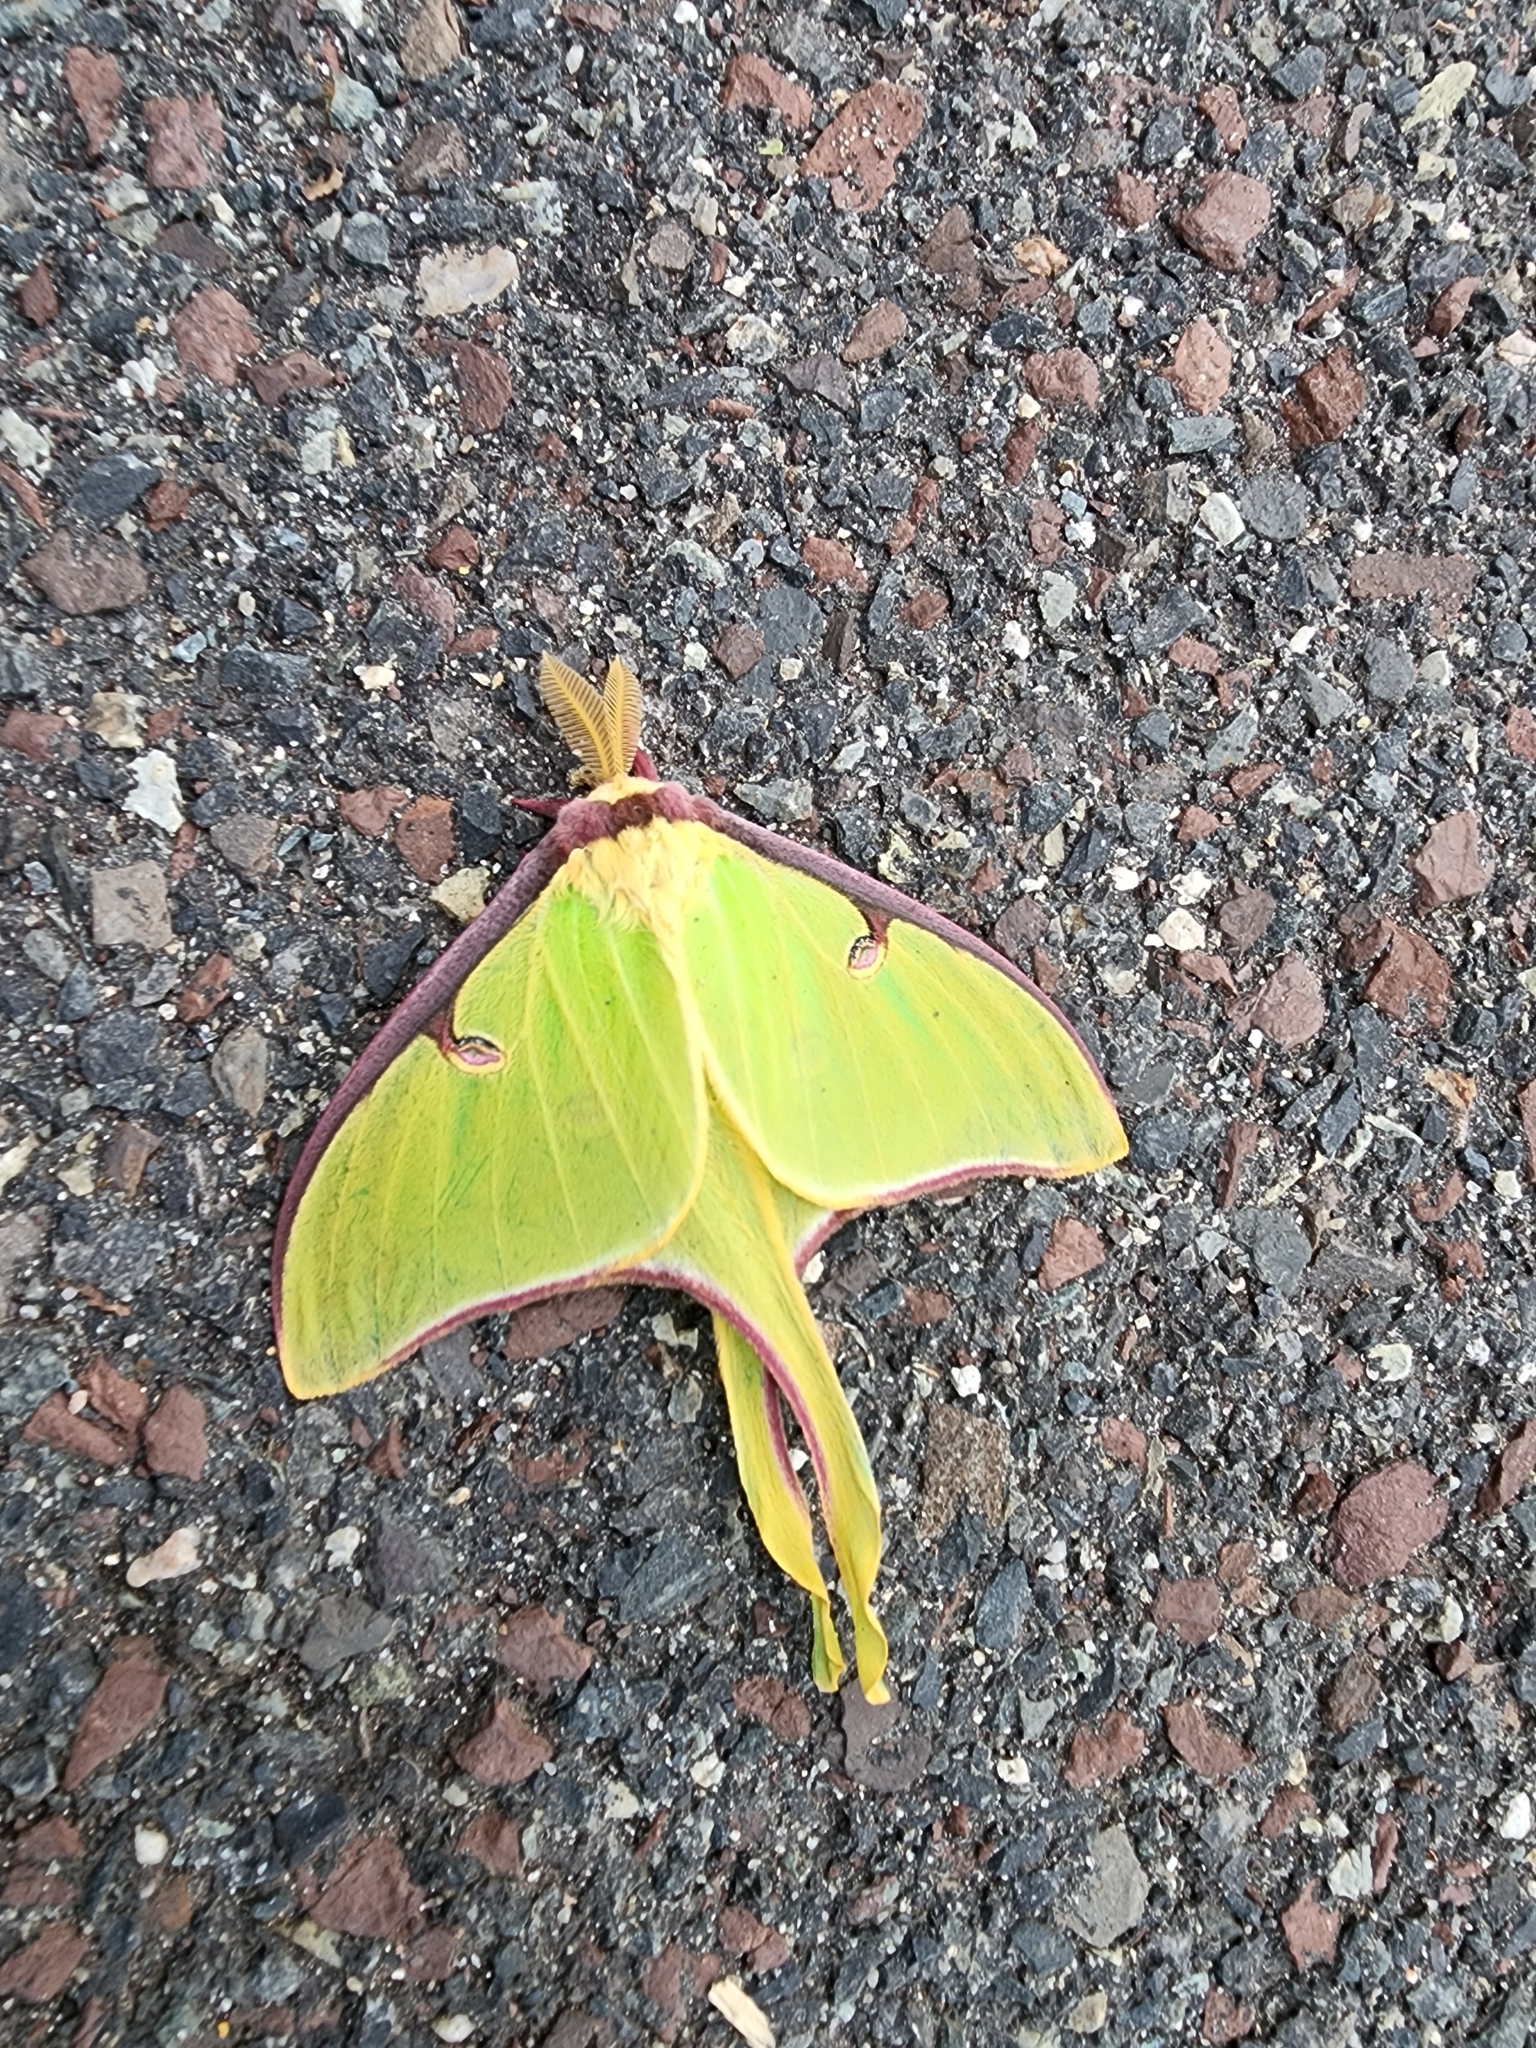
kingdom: Animalia
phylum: Arthropoda
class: Insecta
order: Lepidoptera
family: Saturniidae
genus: Actias
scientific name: Actias luna
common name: Luna moth
